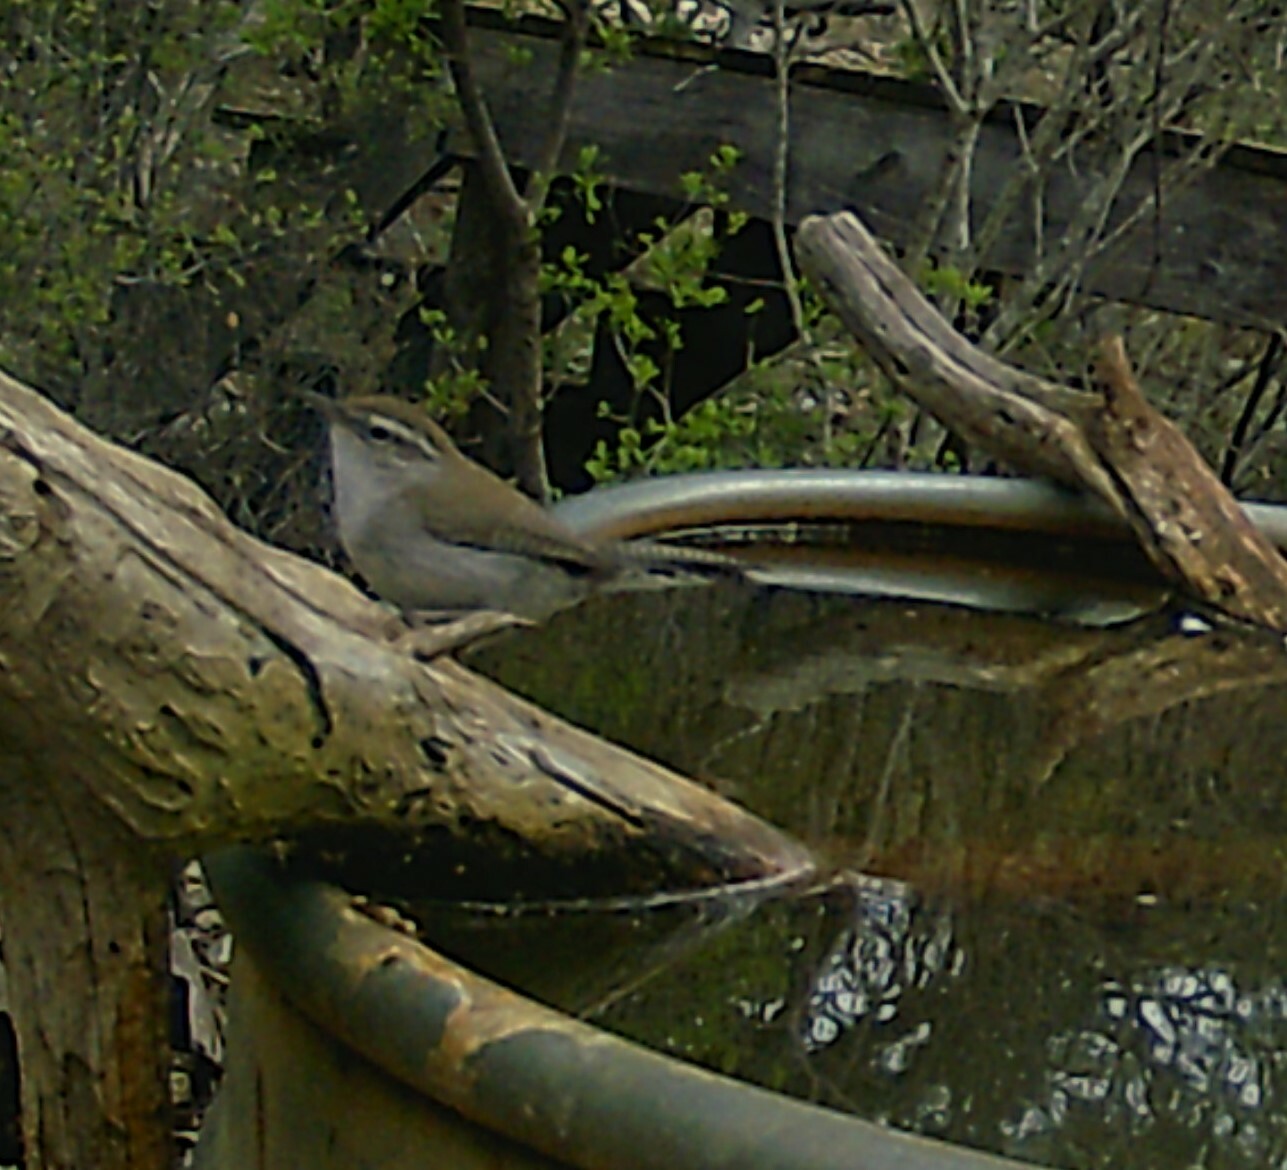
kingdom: Animalia
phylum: Chordata
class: Aves
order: Passeriformes
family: Troglodytidae
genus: Thryomanes
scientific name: Thryomanes bewickii
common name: Bewick's wren
